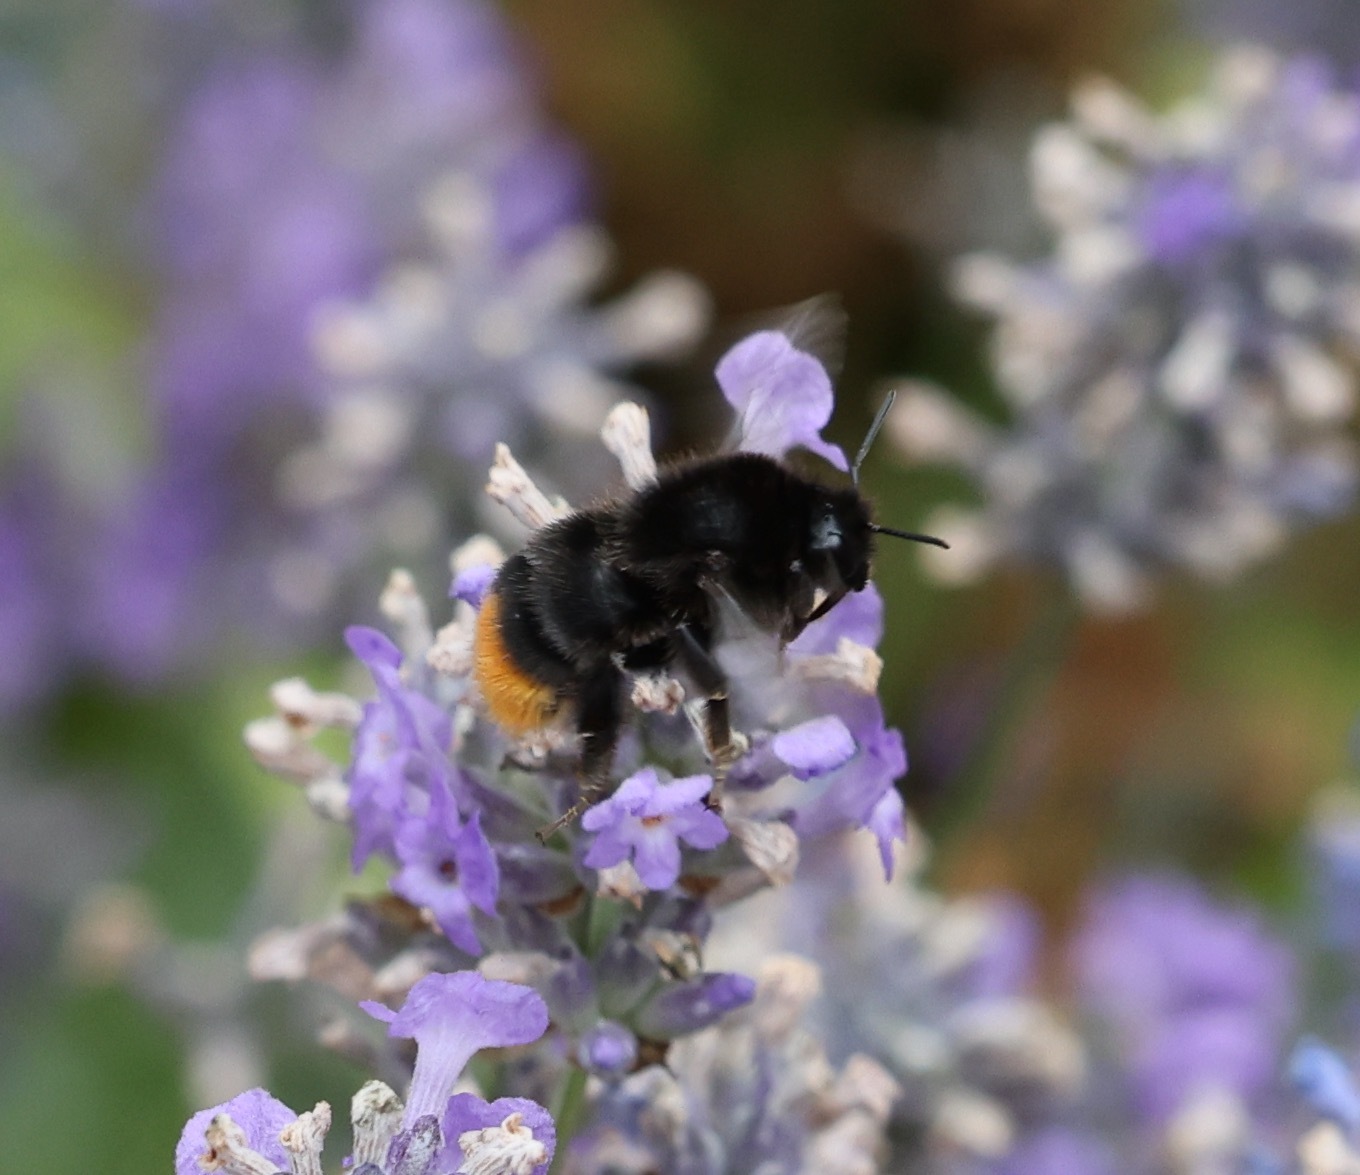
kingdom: Animalia
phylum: Arthropoda
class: Insecta
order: Hymenoptera
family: Apidae
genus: Bombus
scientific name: Bombus lapidarius
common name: Large red-tailed humble-bee
